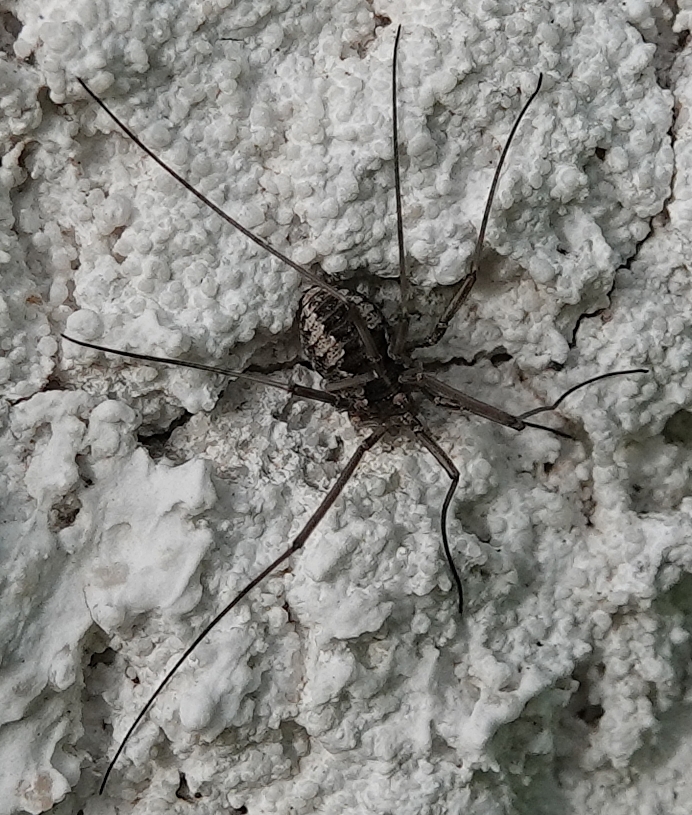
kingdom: Animalia
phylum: Arthropoda
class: Arachnida
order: Opiliones
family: Phalangiidae
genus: Phalangium
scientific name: Phalangium opilio
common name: Daddy longleg
